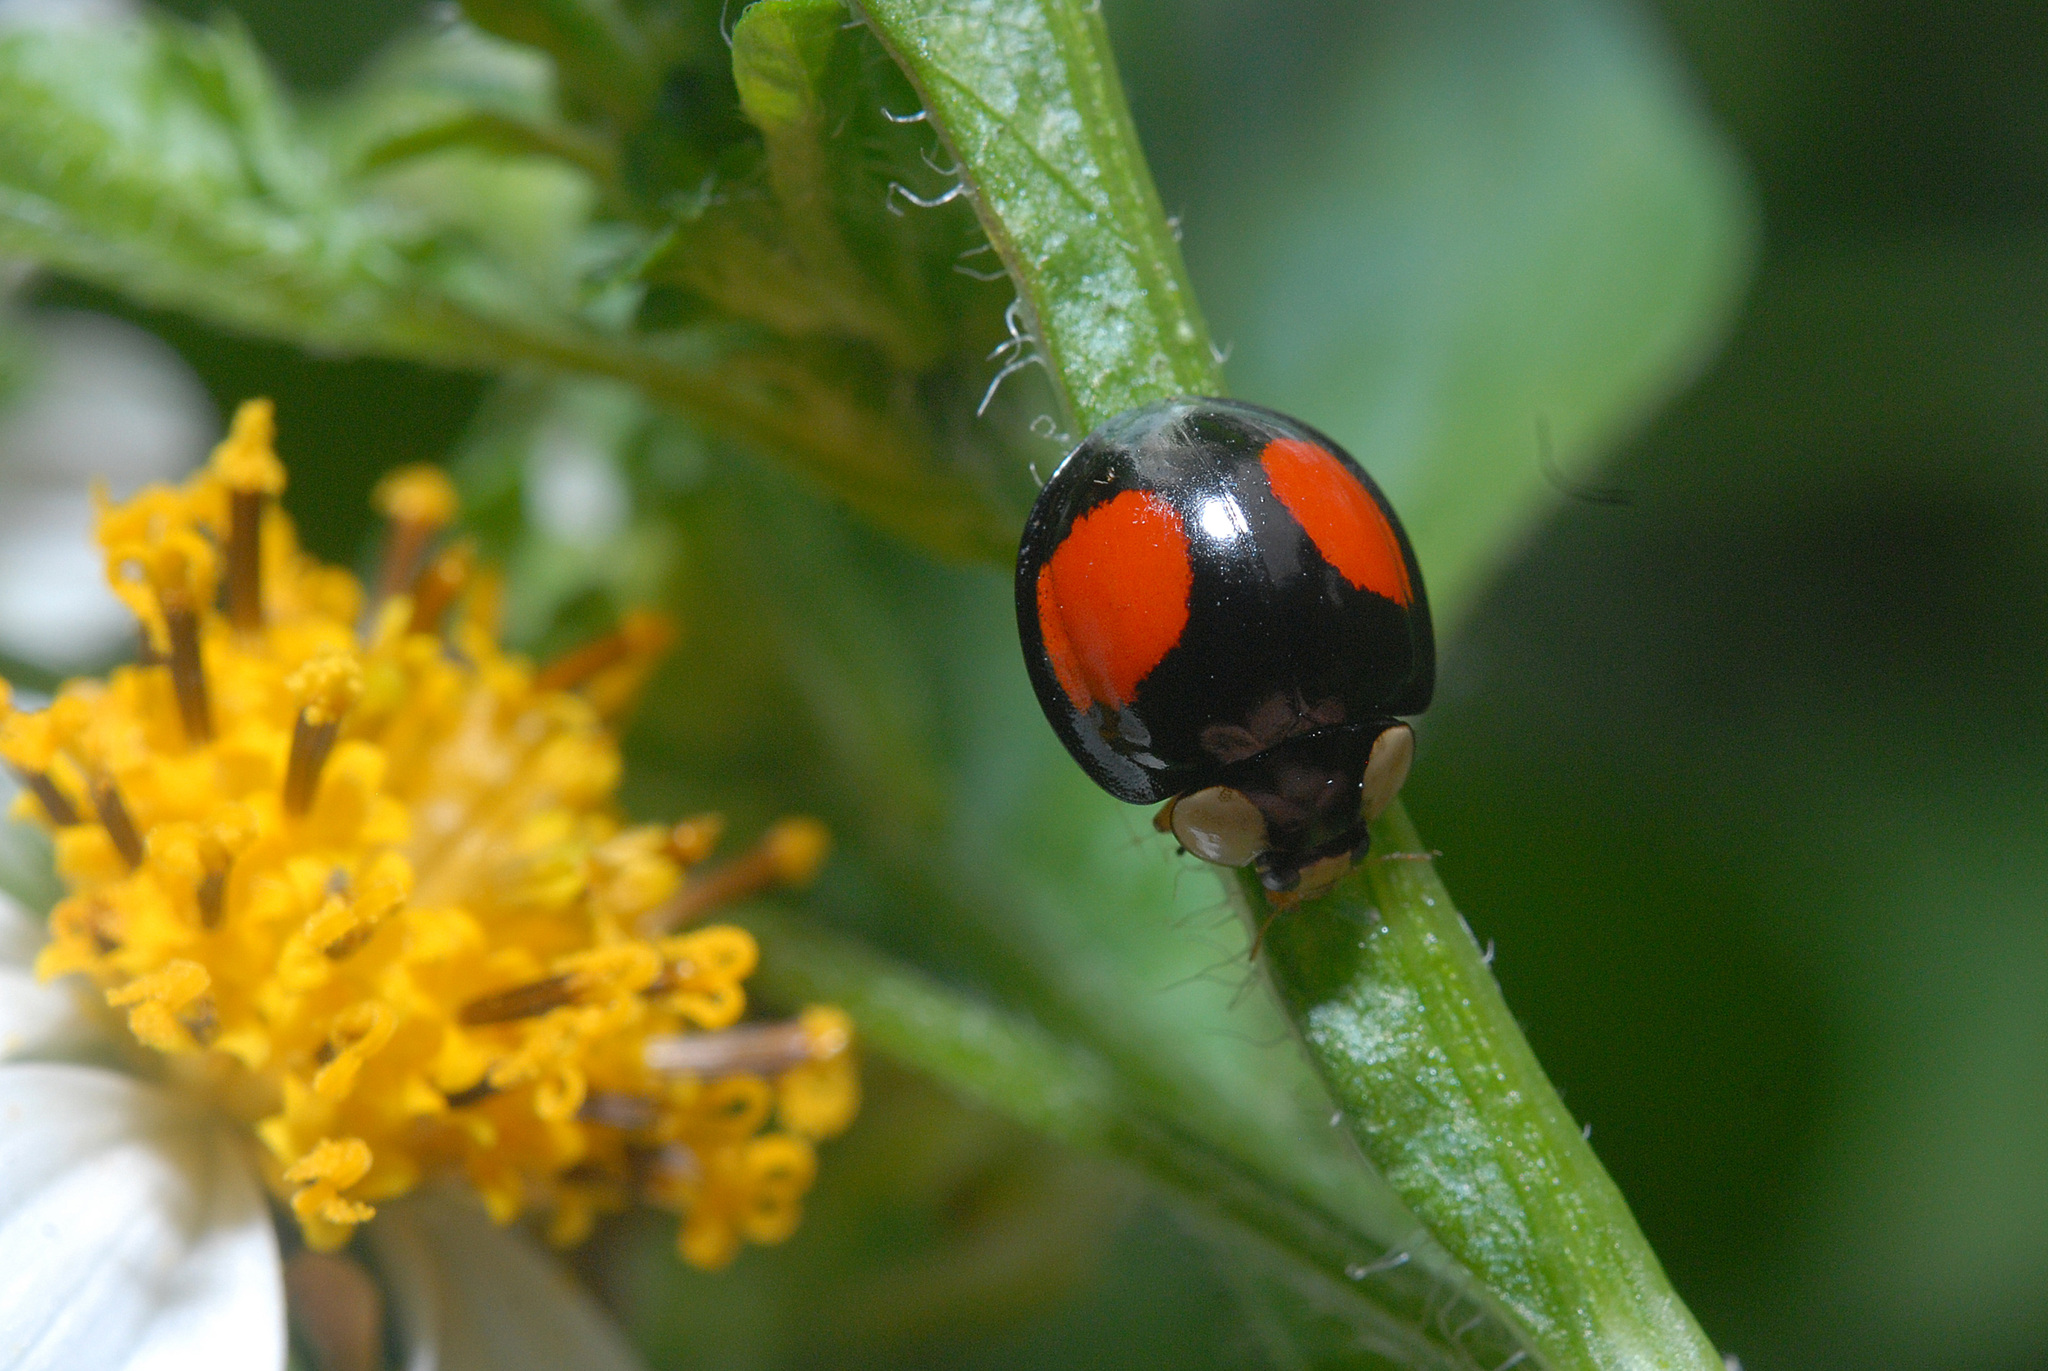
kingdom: Animalia
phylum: Arthropoda
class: Insecta
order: Coleoptera
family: Coccinellidae
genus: Coelophora
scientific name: Coelophora saucia
